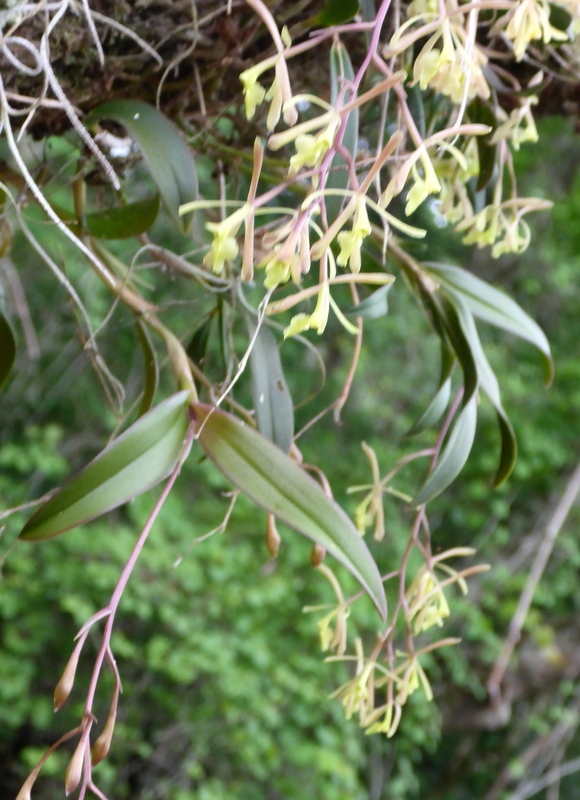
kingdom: Plantae
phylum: Tracheophyta
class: Liliopsida
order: Asparagales
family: Orchidaceae
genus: Epidendrum
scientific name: Epidendrum conopseum
